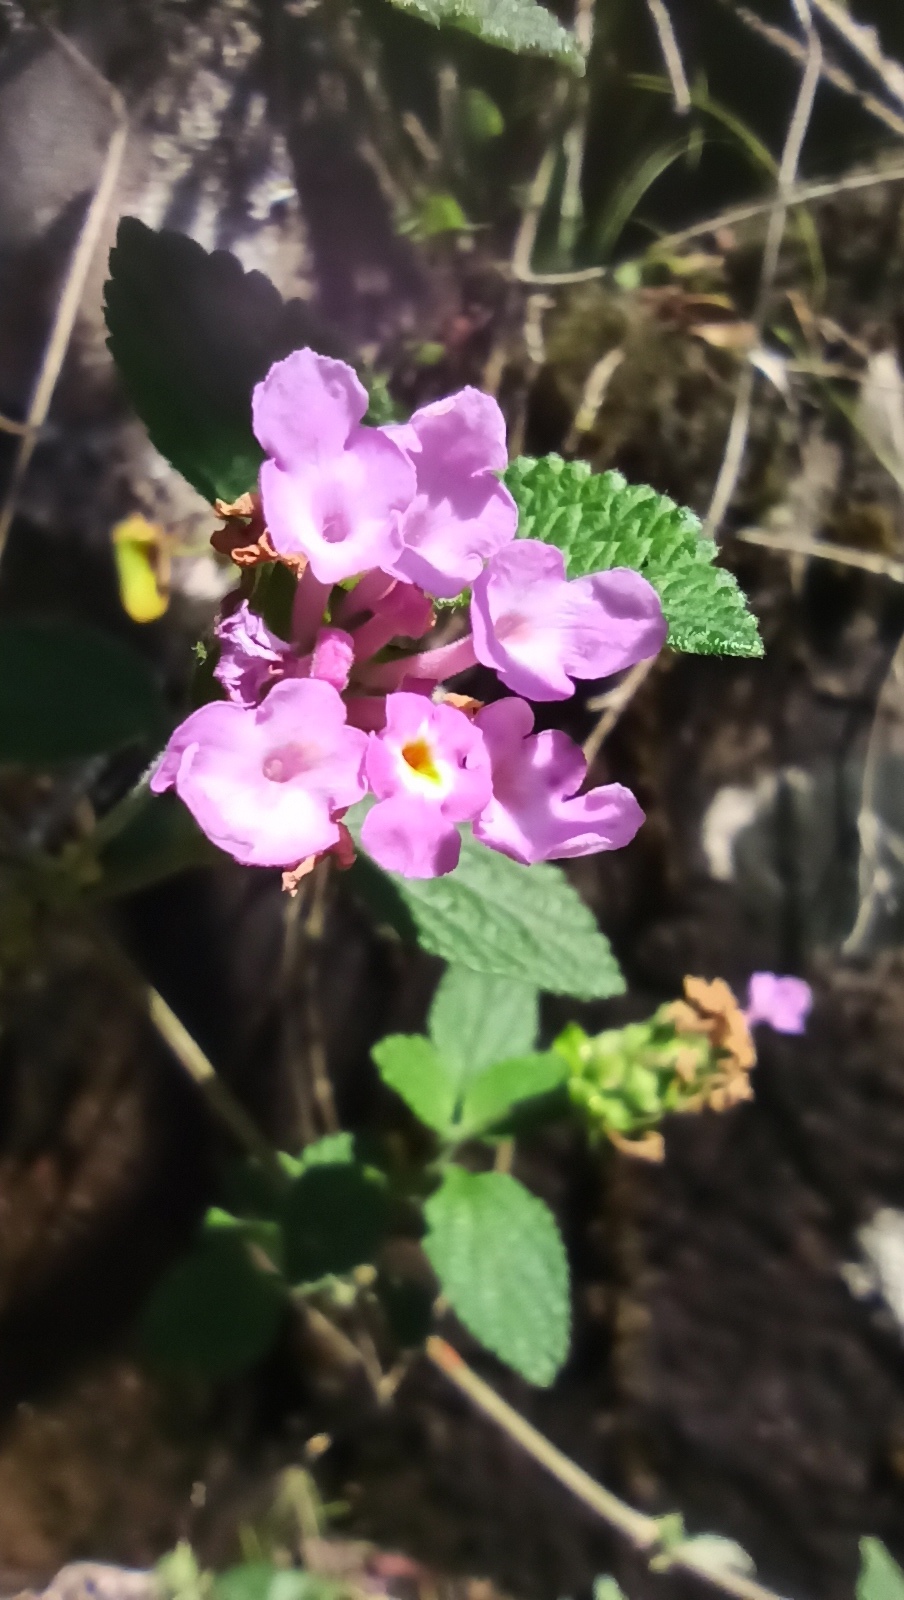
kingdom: Plantae
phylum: Tracheophyta
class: Magnoliopsida
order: Lamiales
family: Verbenaceae
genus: Lantana
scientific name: Lantana montevidensis
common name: Trailing shrubverbena
